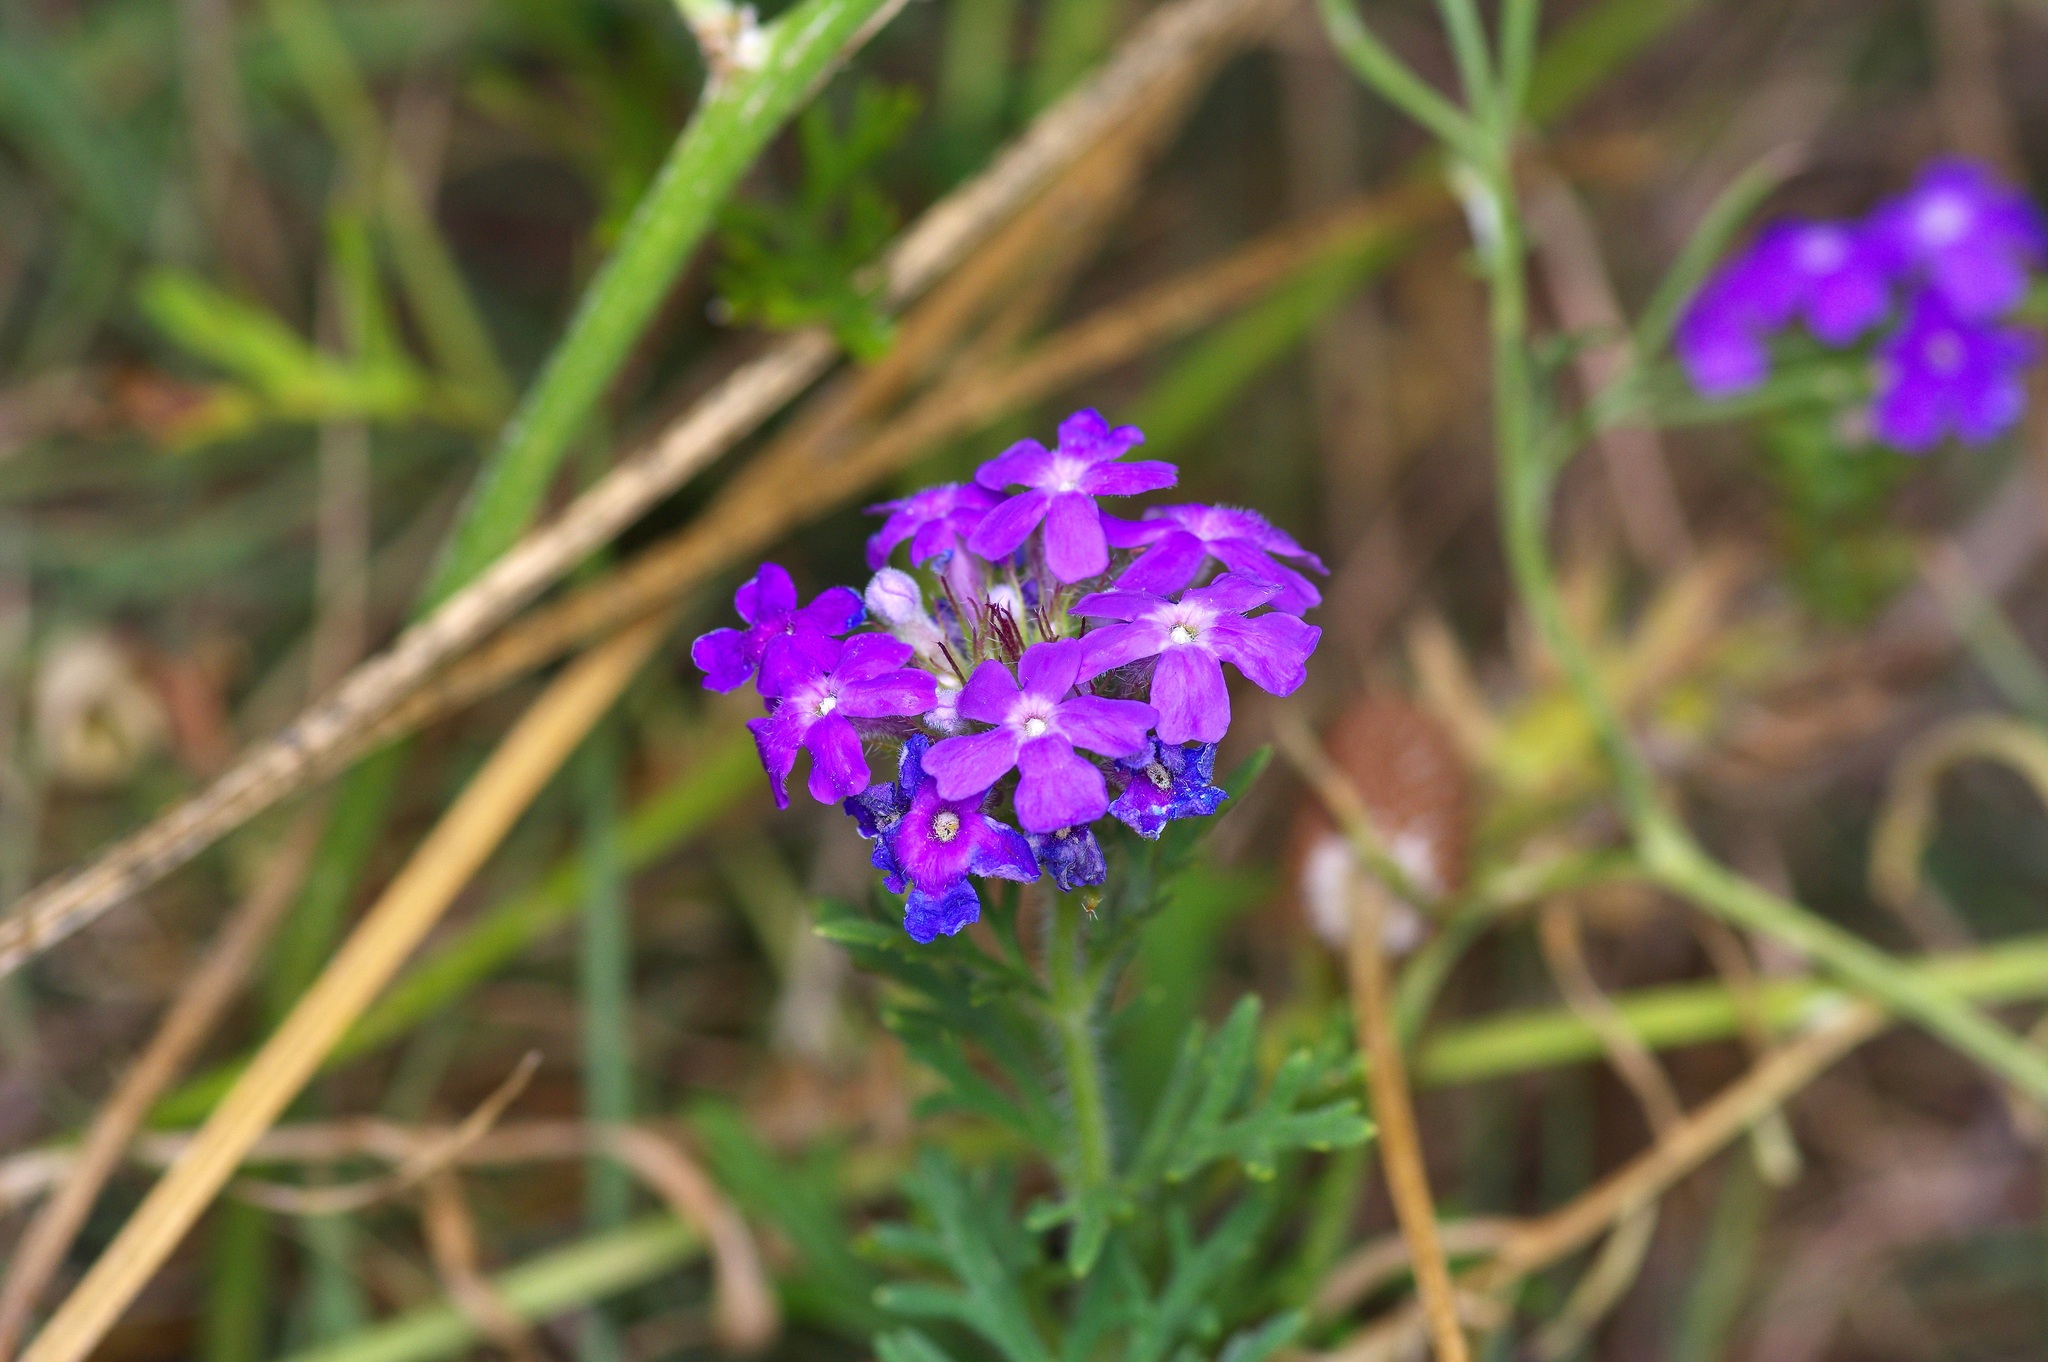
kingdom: Plantae
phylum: Tracheophyta
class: Magnoliopsida
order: Lamiales
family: Verbenaceae
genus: Verbena
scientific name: Verbena bipinnatifida
